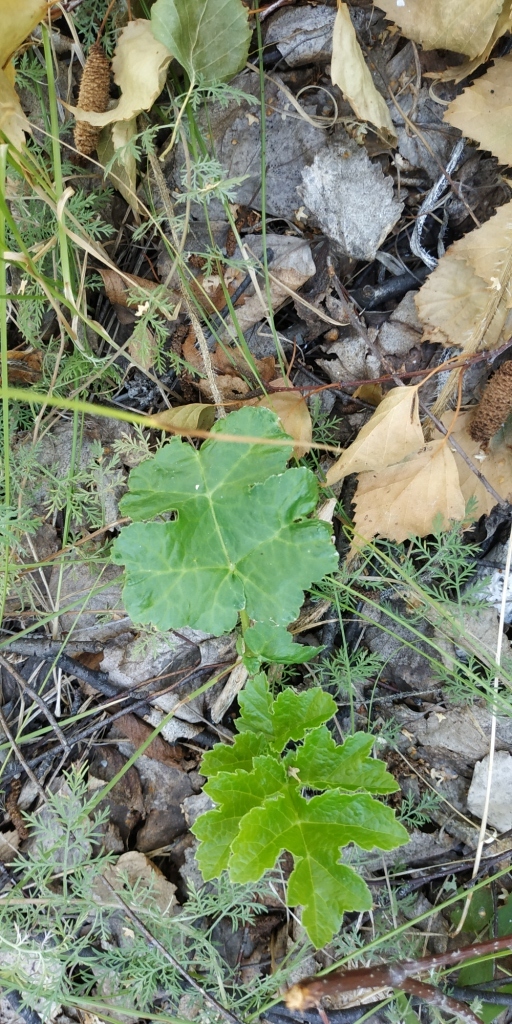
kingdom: Plantae
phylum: Tracheophyta
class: Magnoliopsida
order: Apiales
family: Apiaceae
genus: Heracleum
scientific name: Heracleum sphondylium
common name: Hogweed
